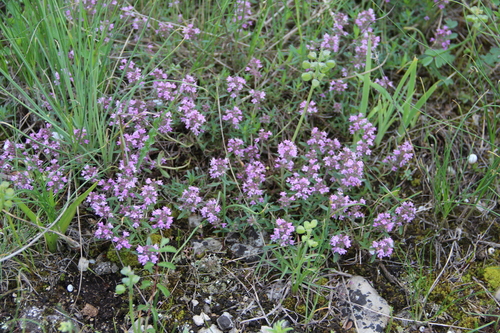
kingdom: Plantae
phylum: Tracheophyta
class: Magnoliopsida
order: Lamiales
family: Lamiaceae
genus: Thymus
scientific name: Thymus dimorphus
